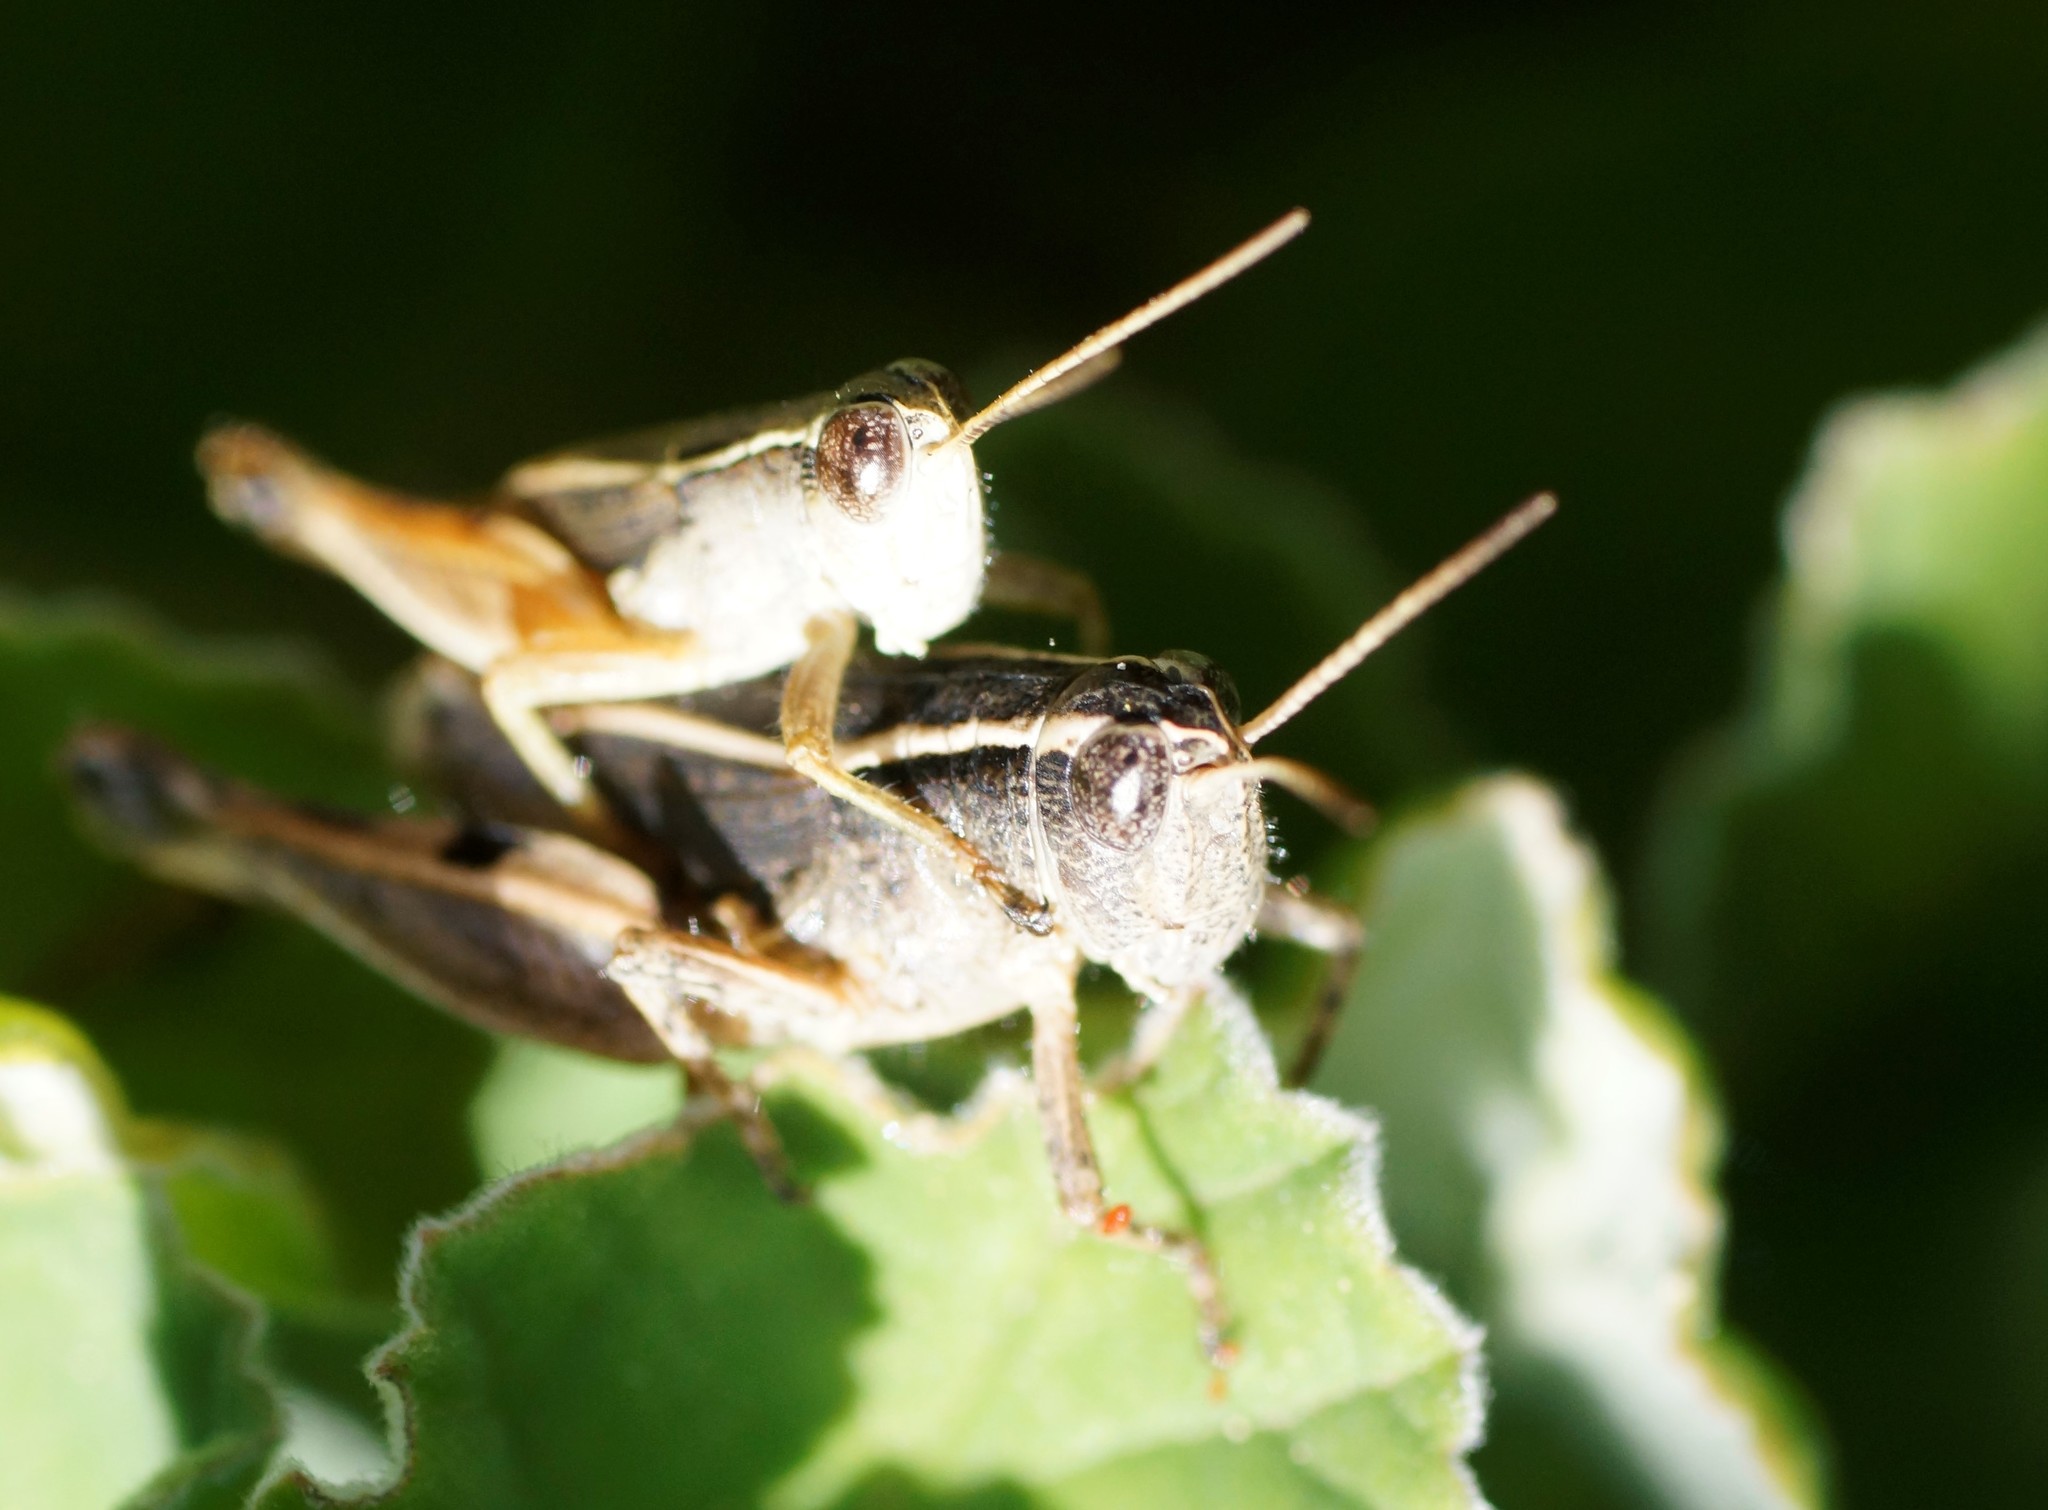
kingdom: Animalia
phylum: Arthropoda
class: Insecta
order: Orthoptera
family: Acrididae
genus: Phaulacridium
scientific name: Phaulacridium vittatum
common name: Wingless grasshopper
